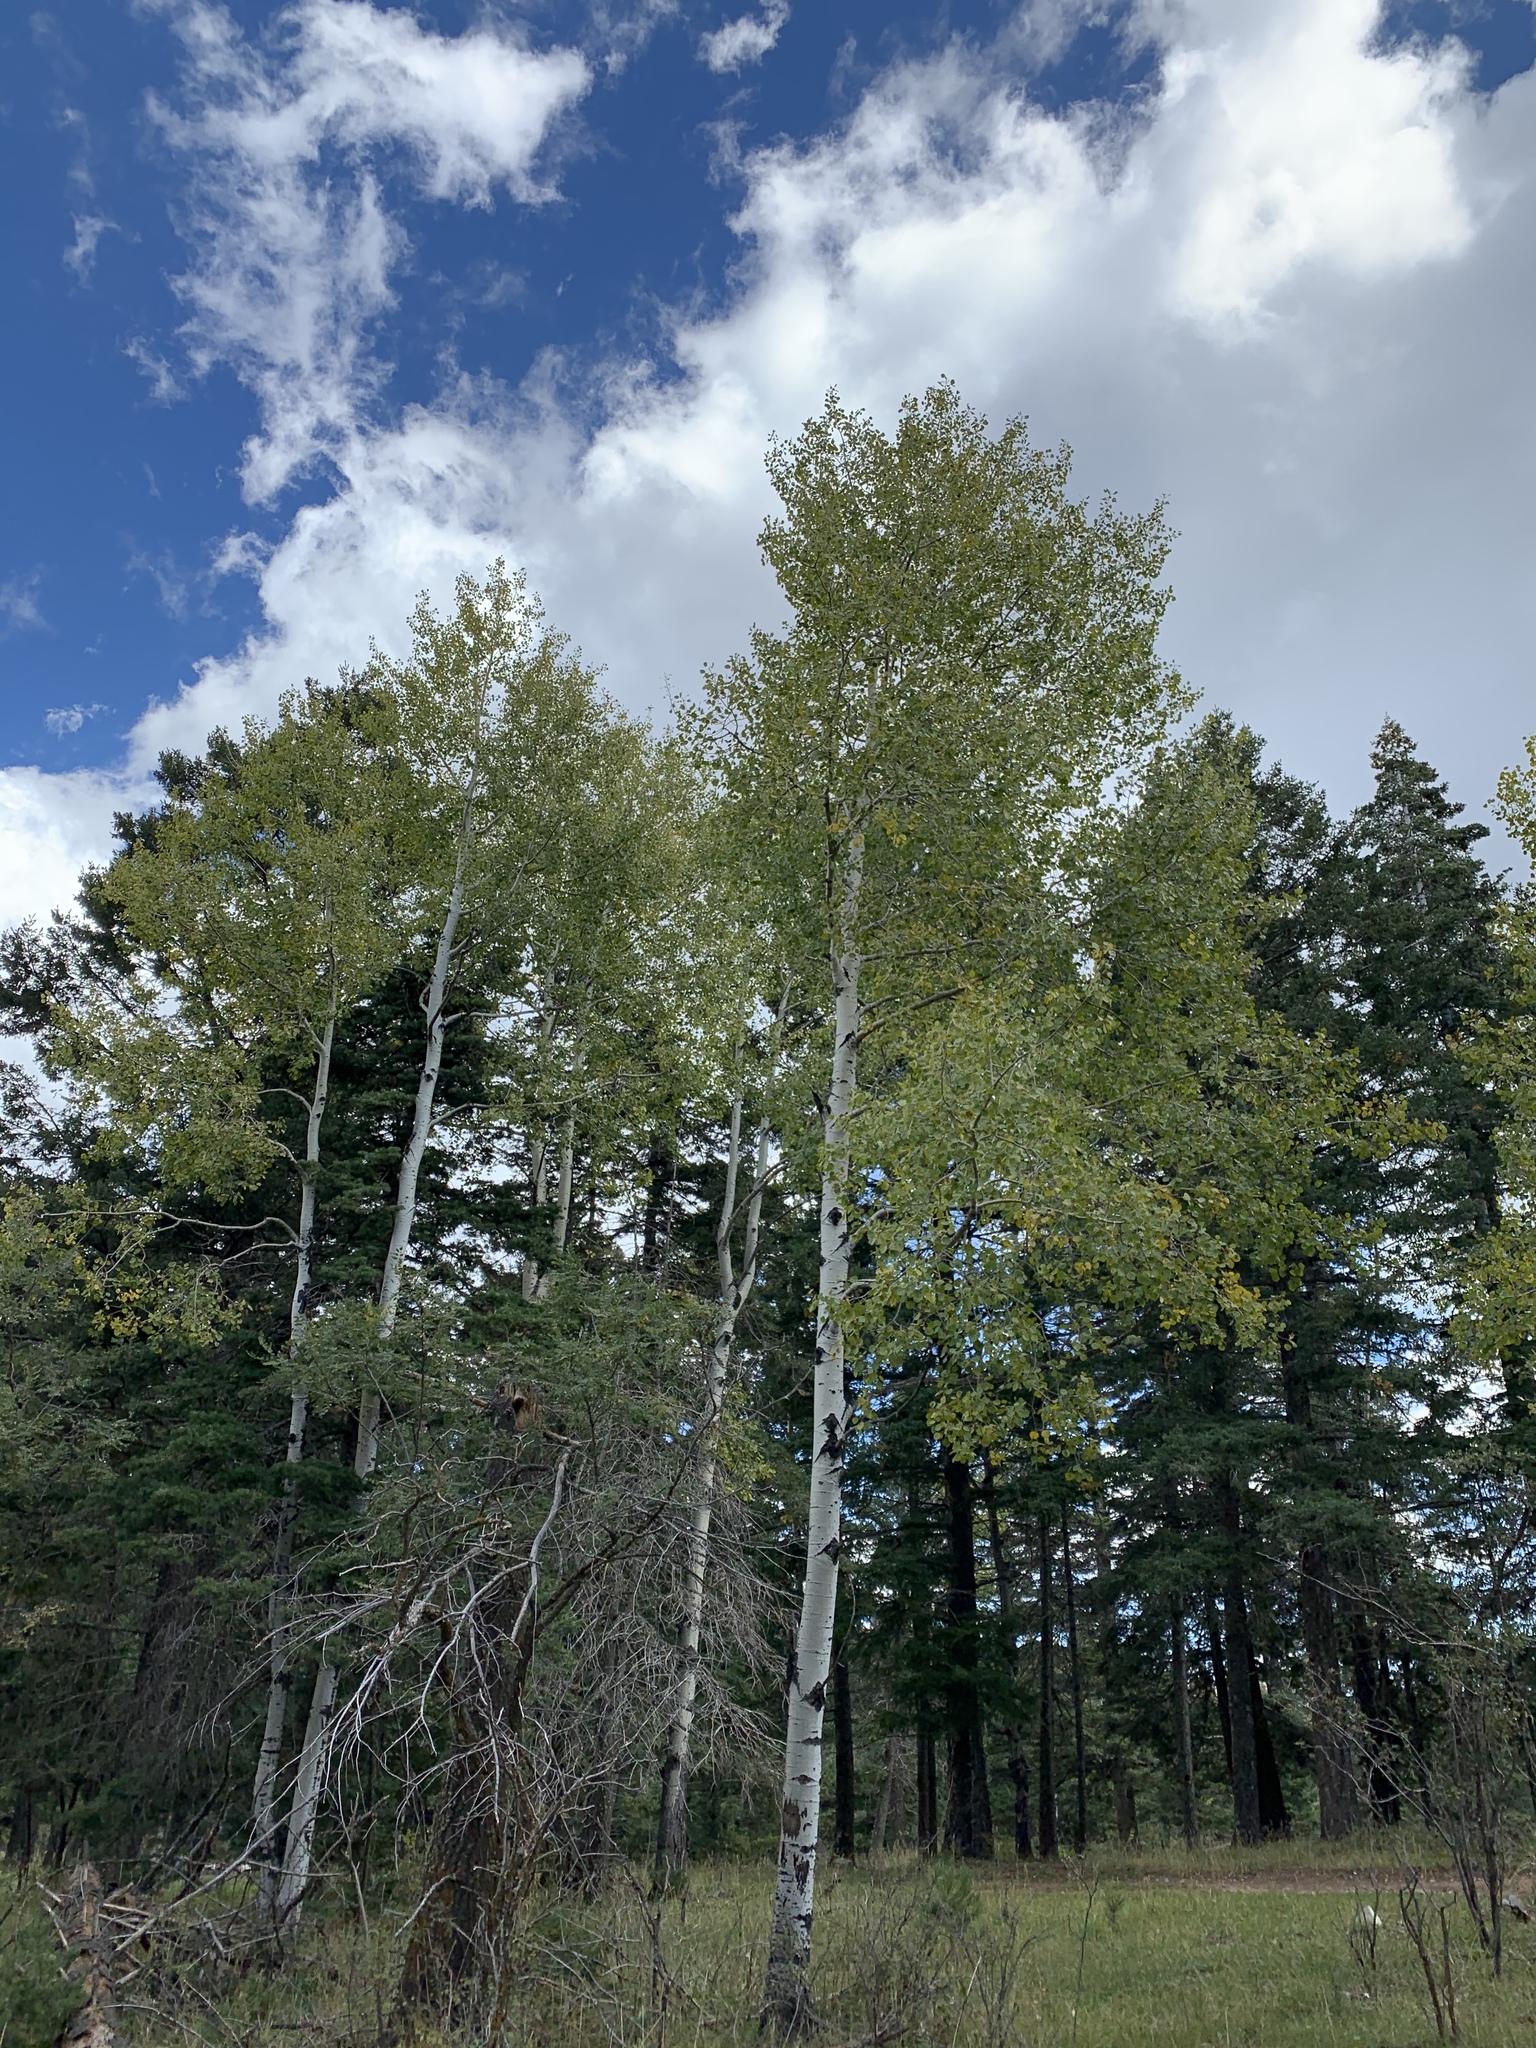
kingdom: Plantae
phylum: Tracheophyta
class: Magnoliopsida
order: Malpighiales
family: Salicaceae
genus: Populus
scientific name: Populus tremuloides
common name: Quaking aspen
